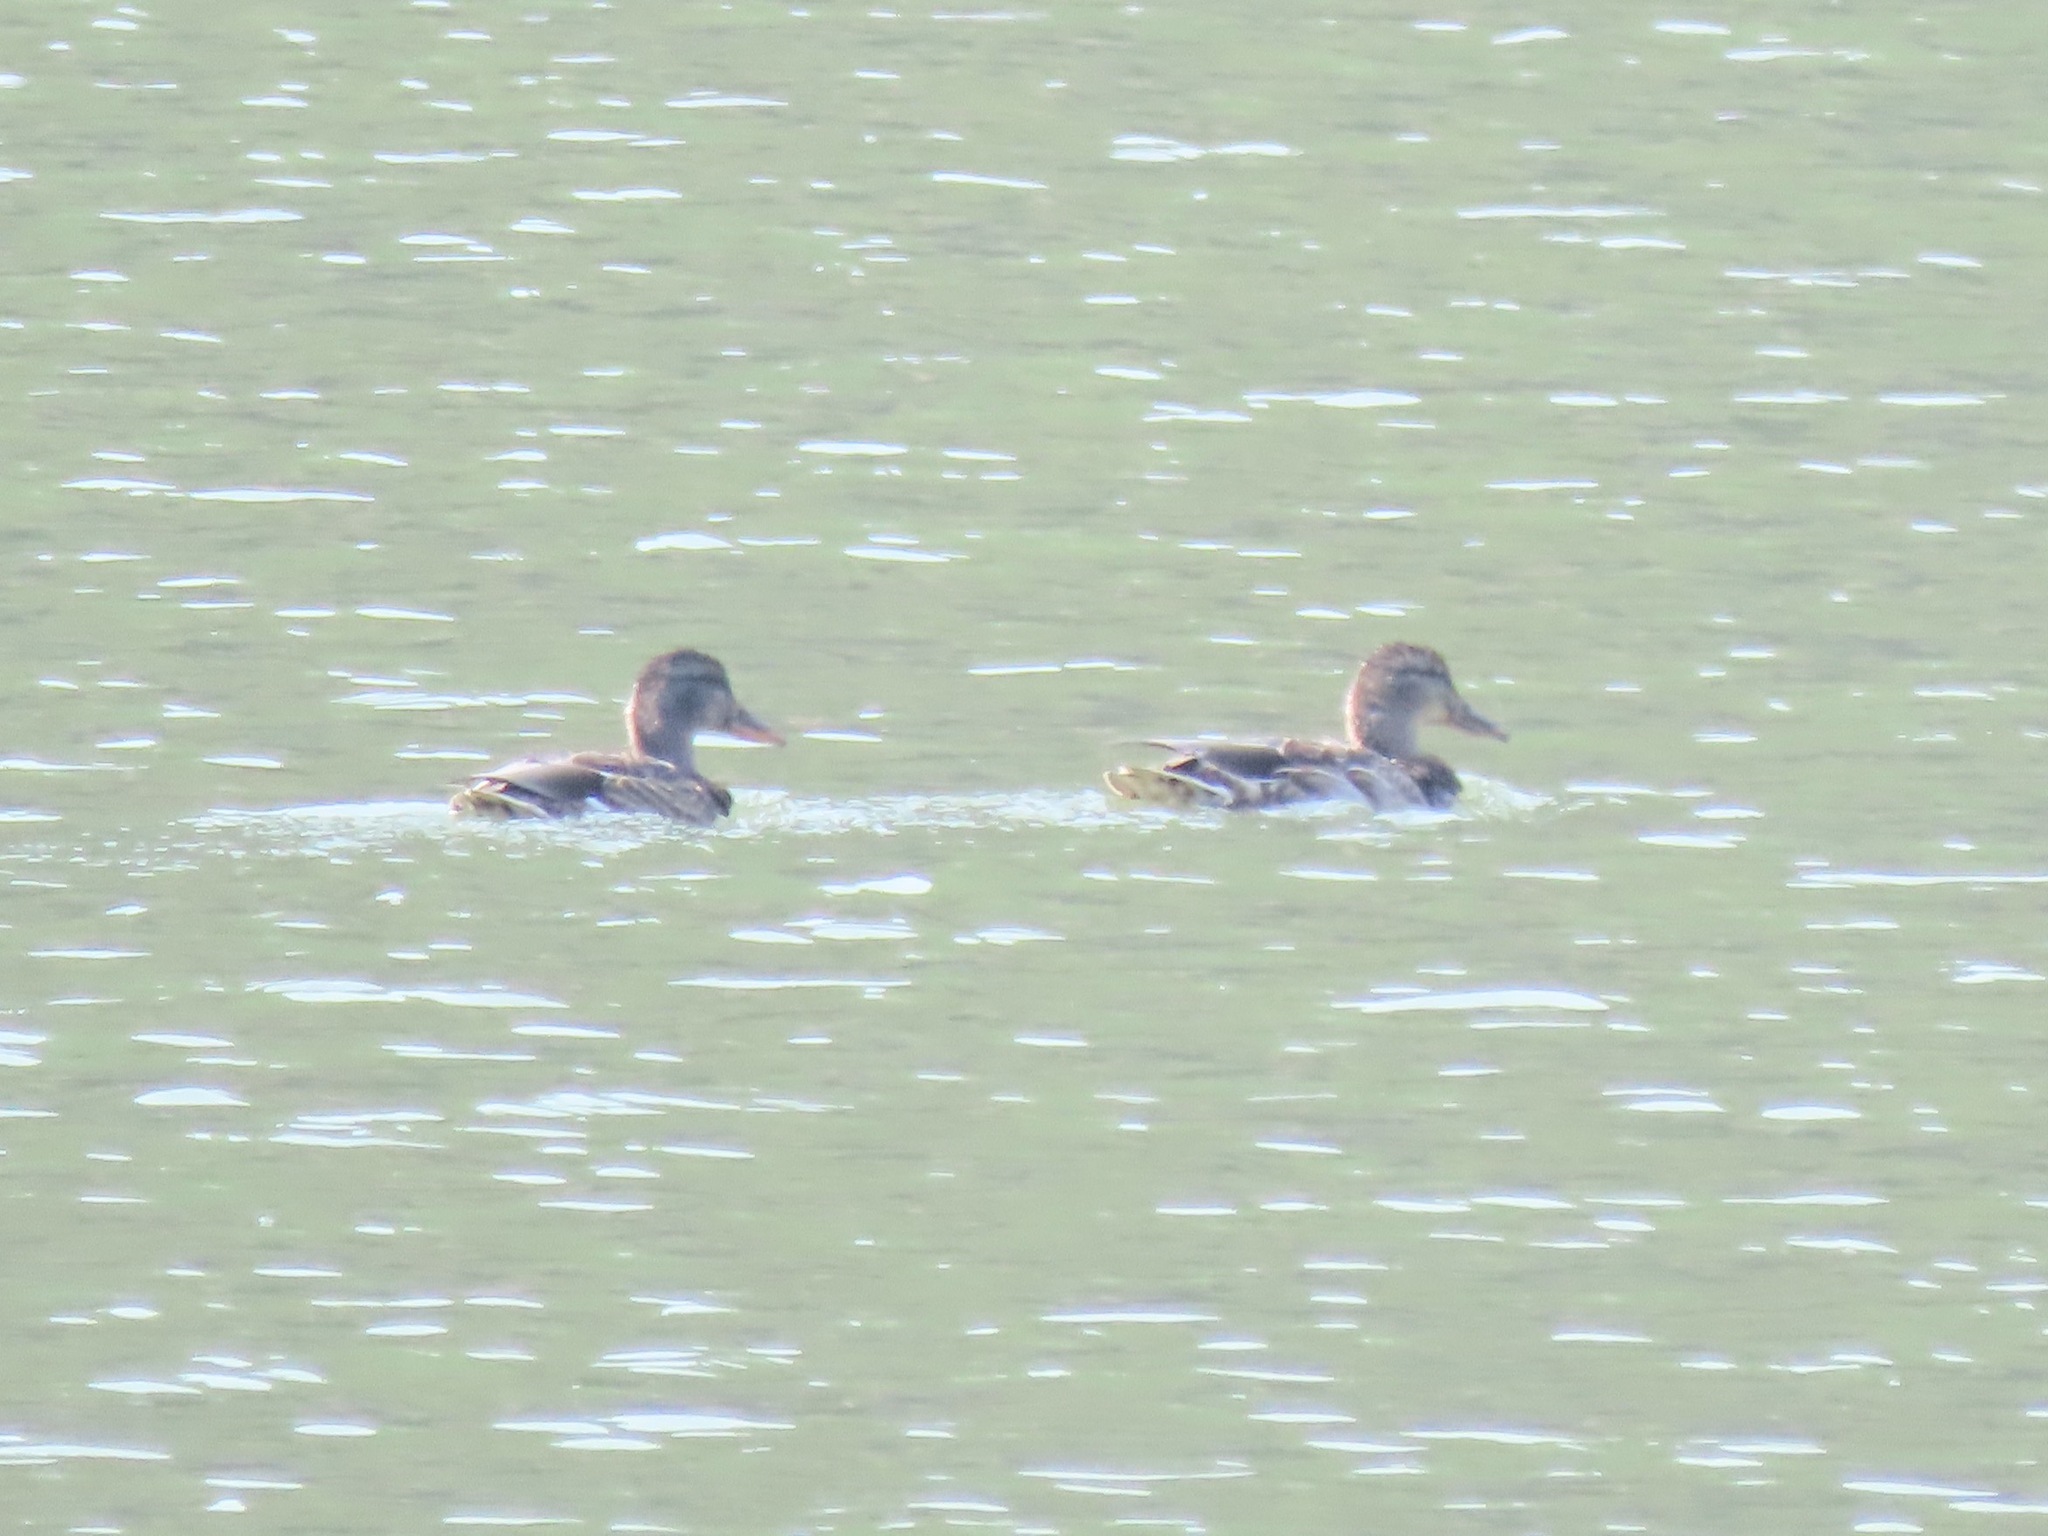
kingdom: Animalia
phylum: Chordata
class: Aves
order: Anseriformes
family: Anatidae
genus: Anas
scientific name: Anas platyrhynchos
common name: Mallard
